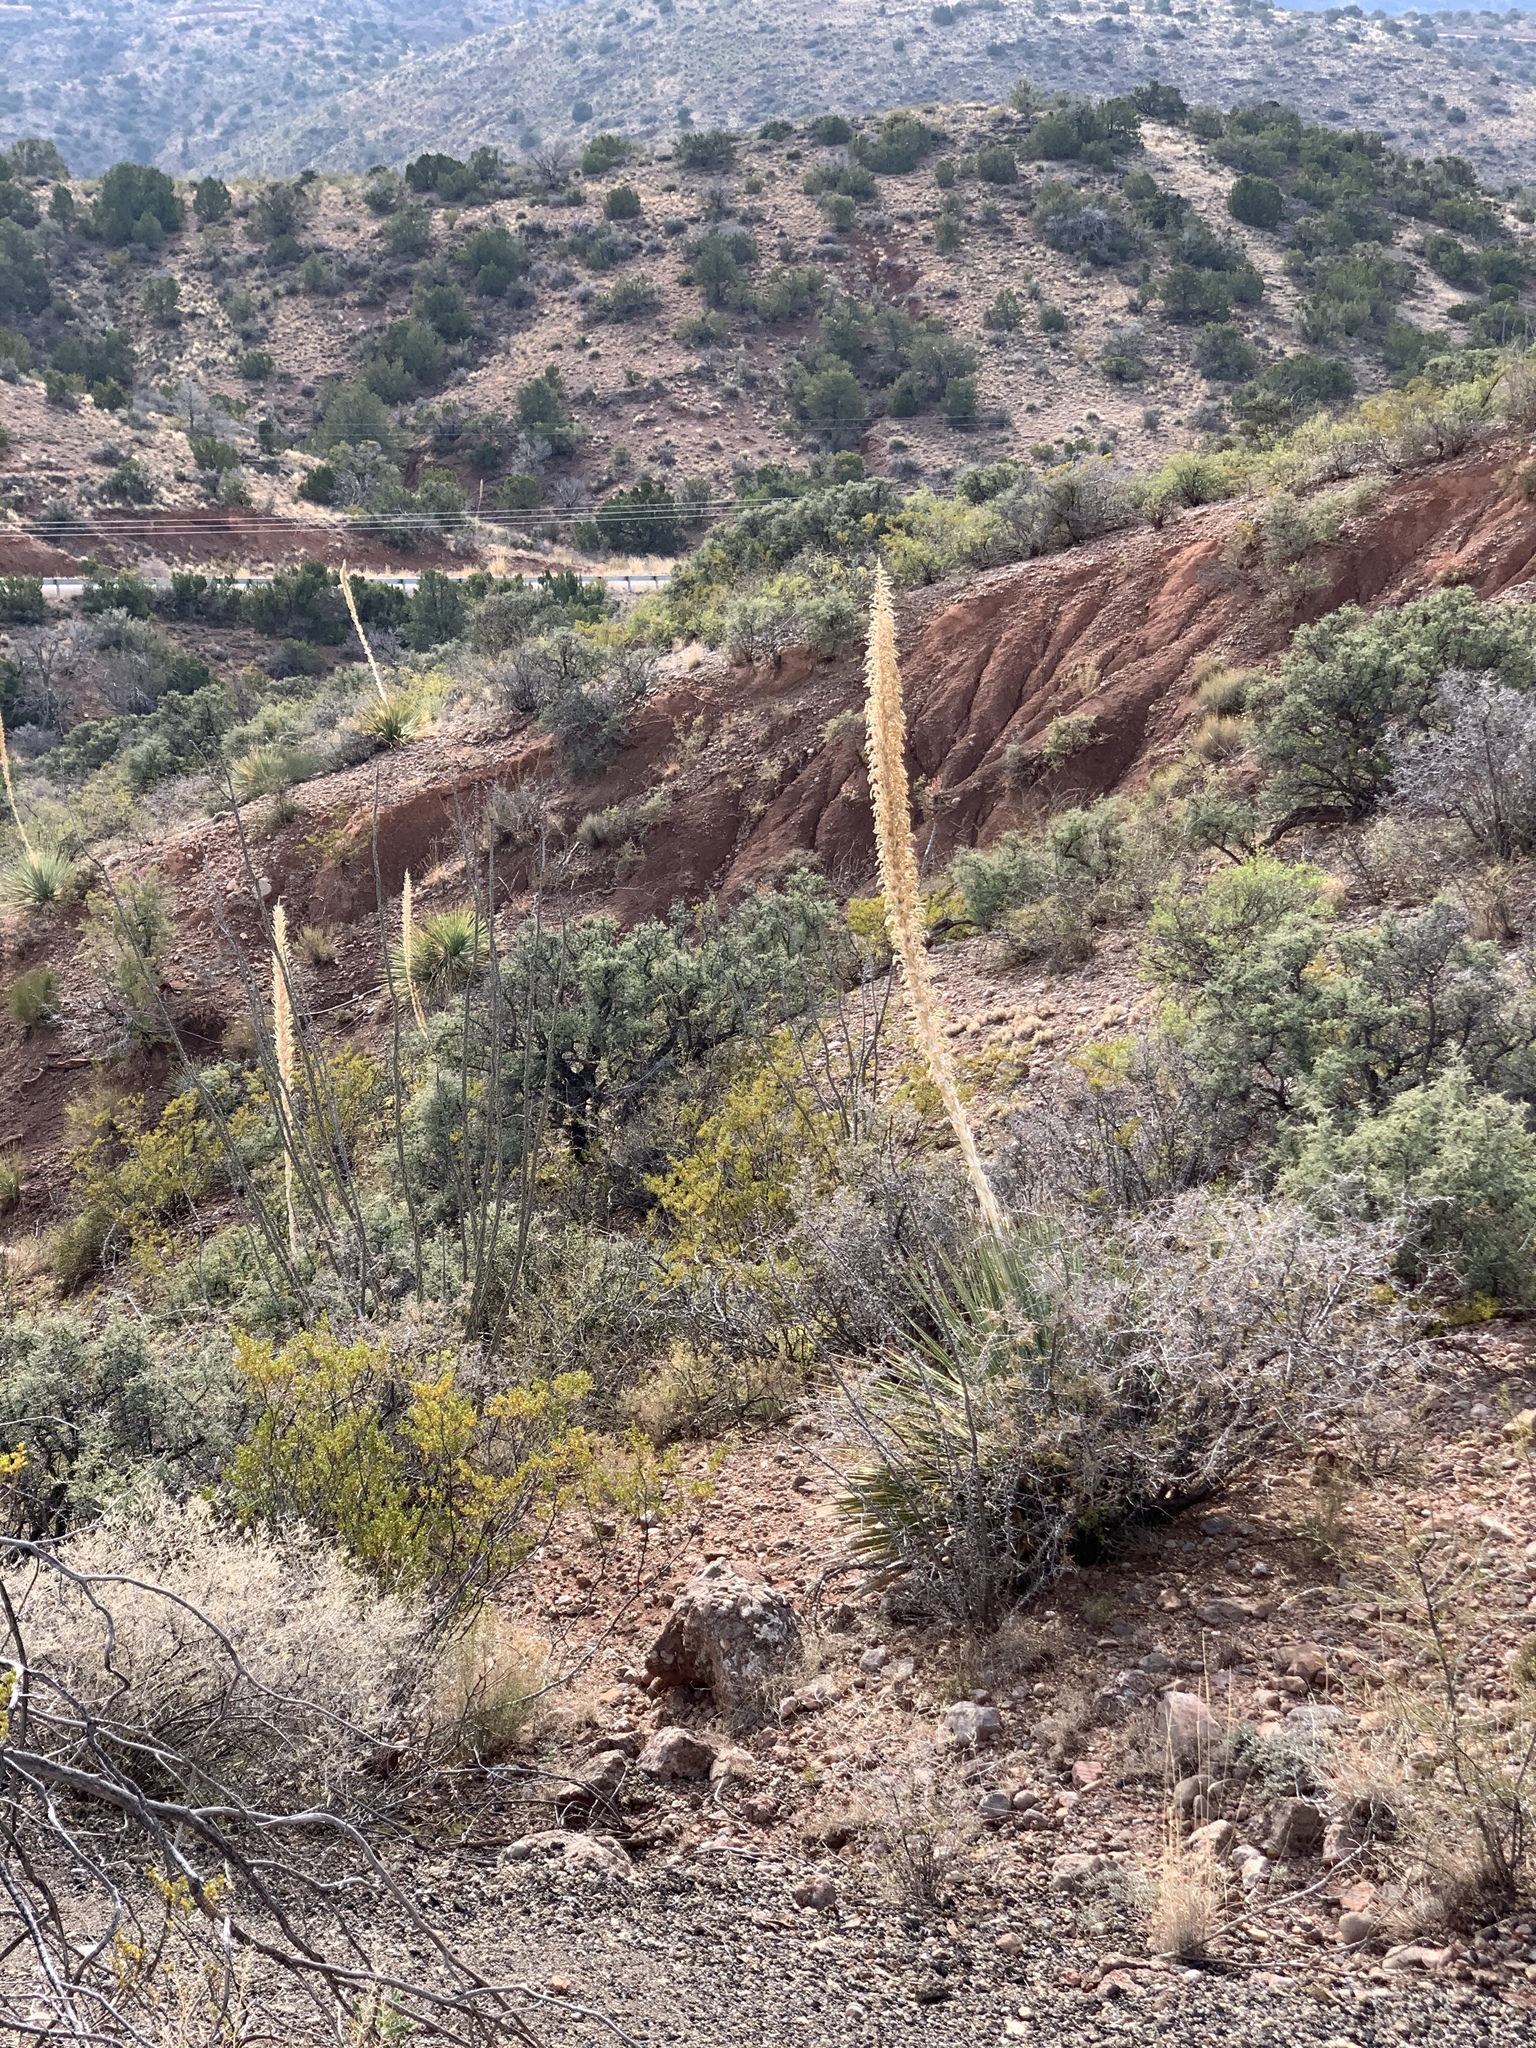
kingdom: Plantae
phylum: Tracheophyta
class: Liliopsida
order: Asparagales
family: Asparagaceae
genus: Dasylirion
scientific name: Dasylirion wheeleri
